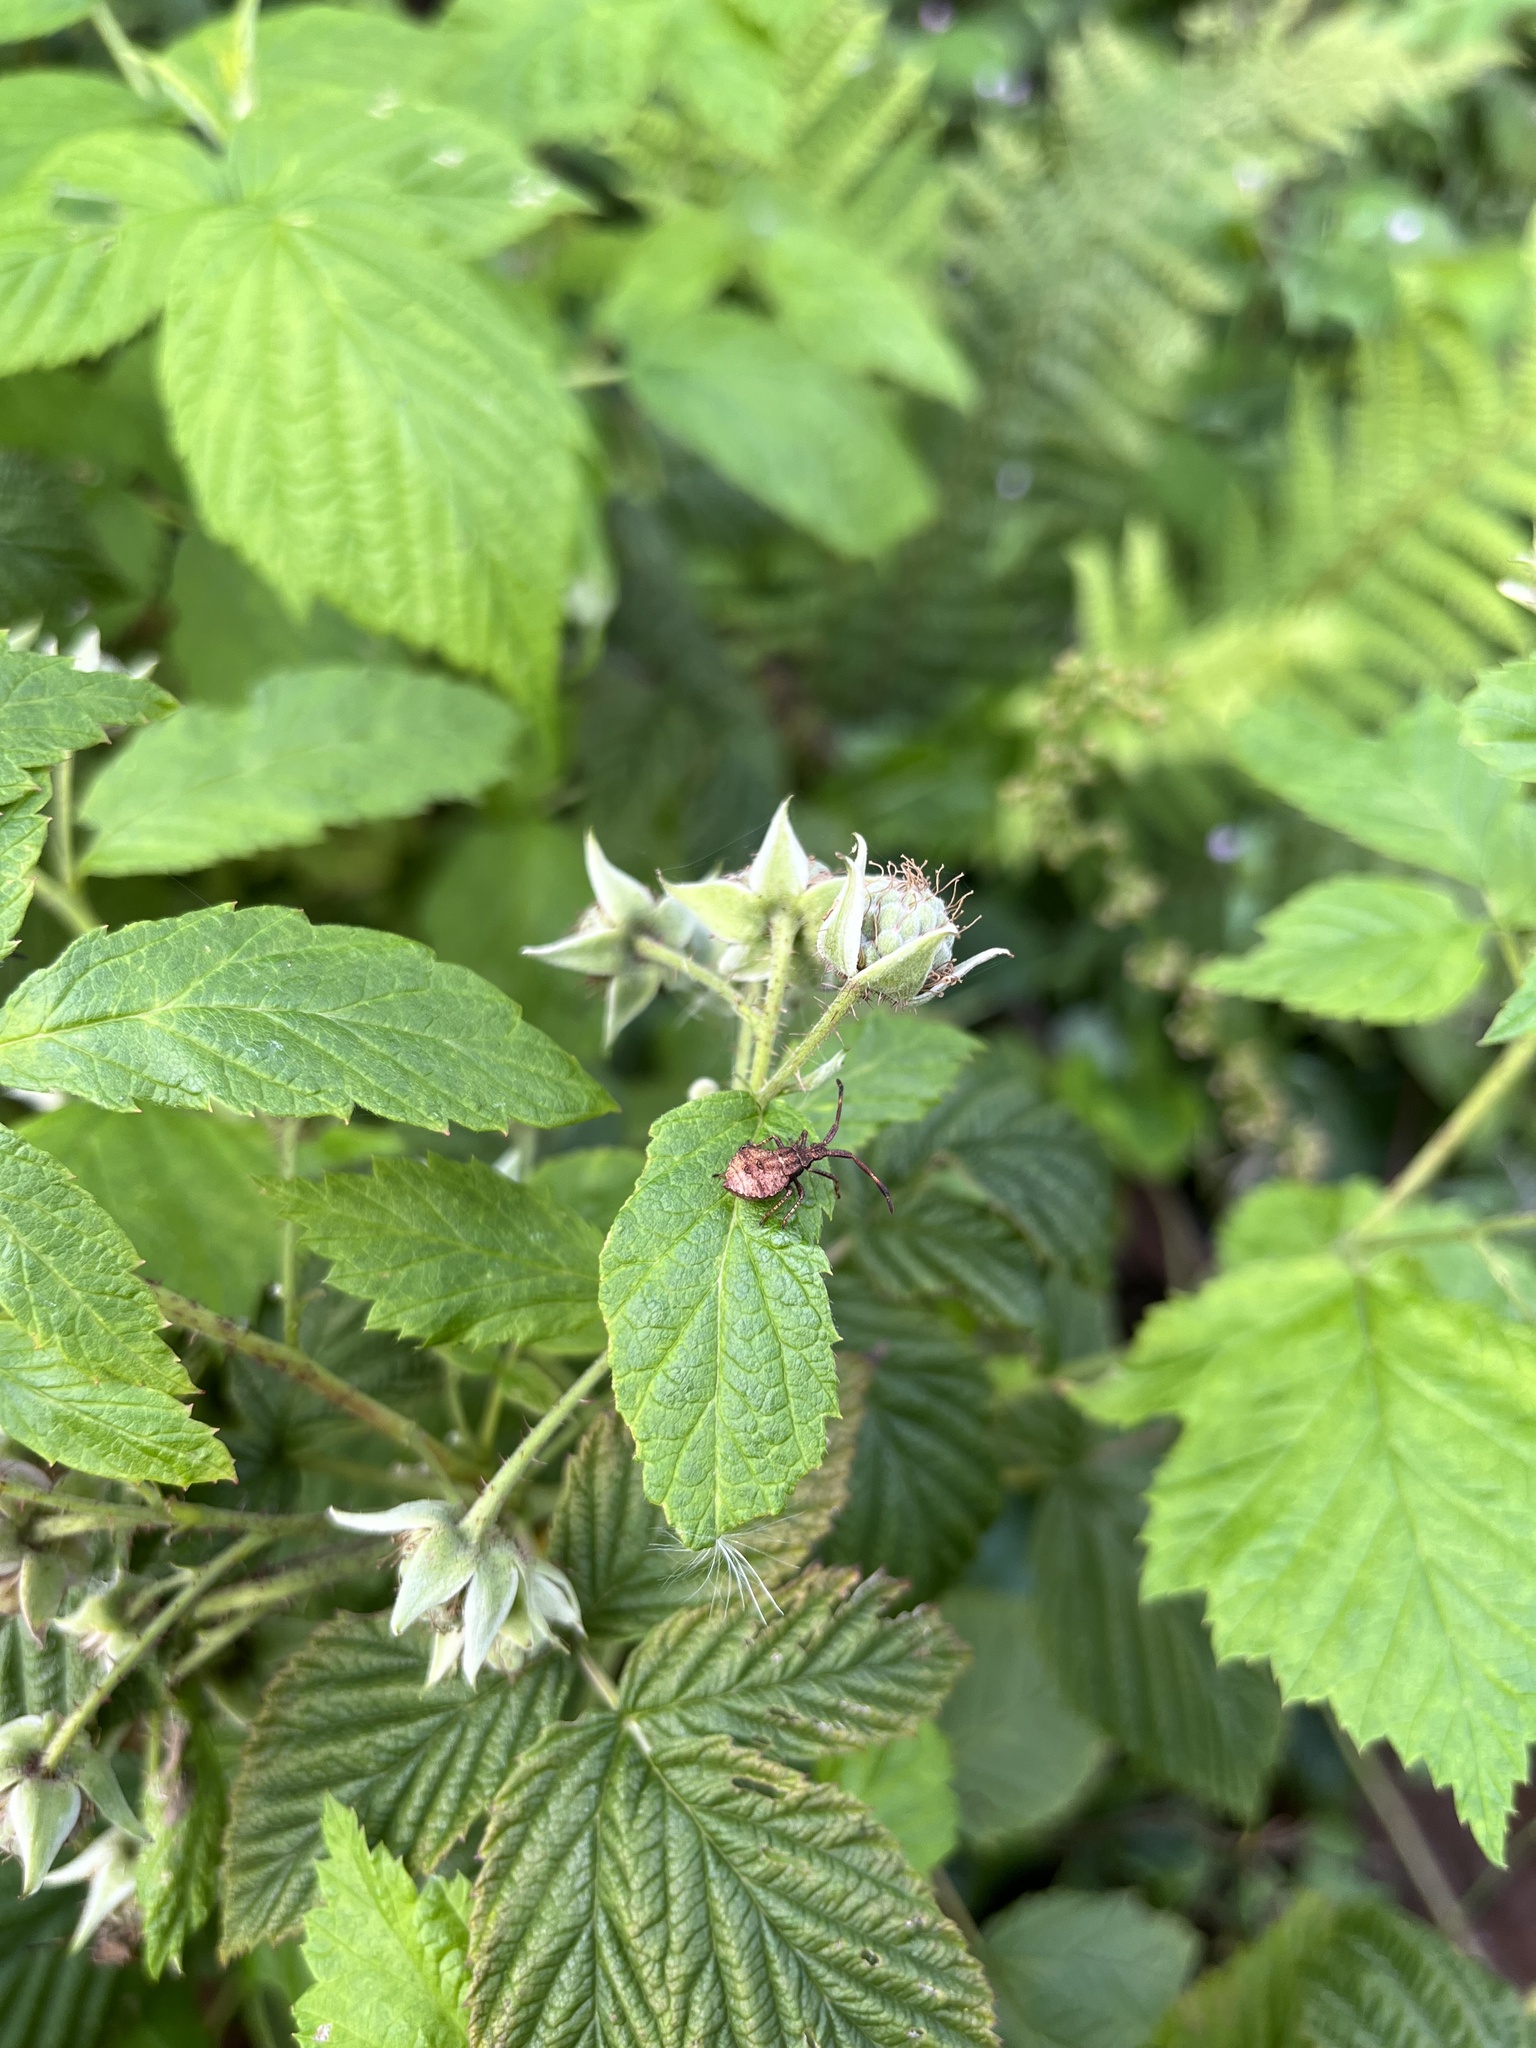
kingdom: Animalia
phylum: Arthropoda
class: Insecta
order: Hemiptera
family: Coreidae
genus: Coreus
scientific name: Coreus marginatus
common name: Dock bug
